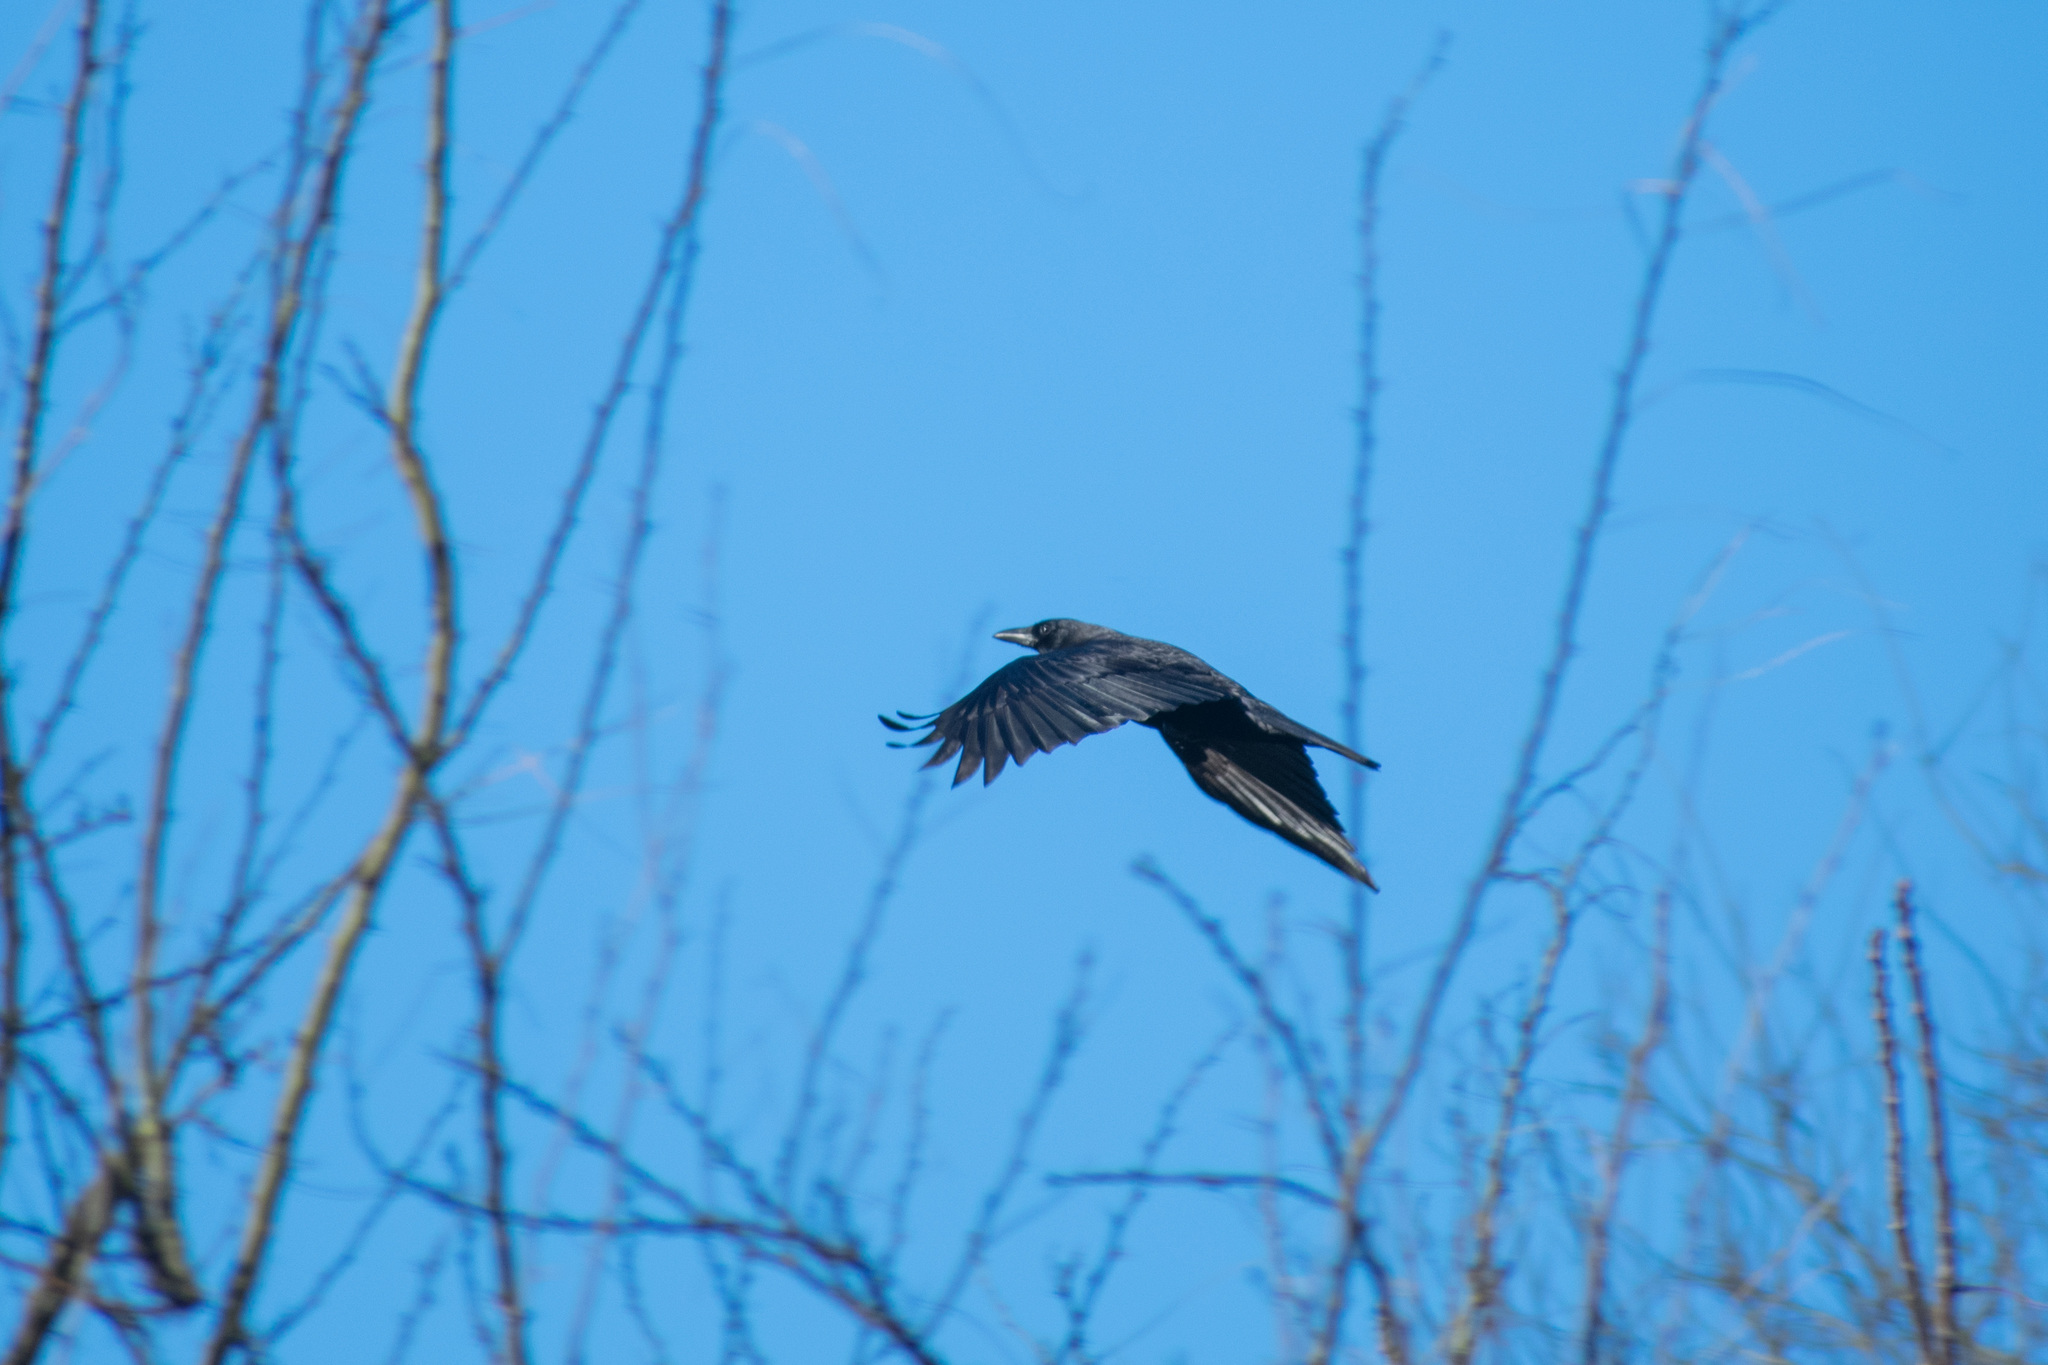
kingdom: Animalia
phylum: Chordata
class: Aves
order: Passeriformes
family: Corvidae
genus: Corvus
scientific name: Corvus brachyrhynchos
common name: American crow
